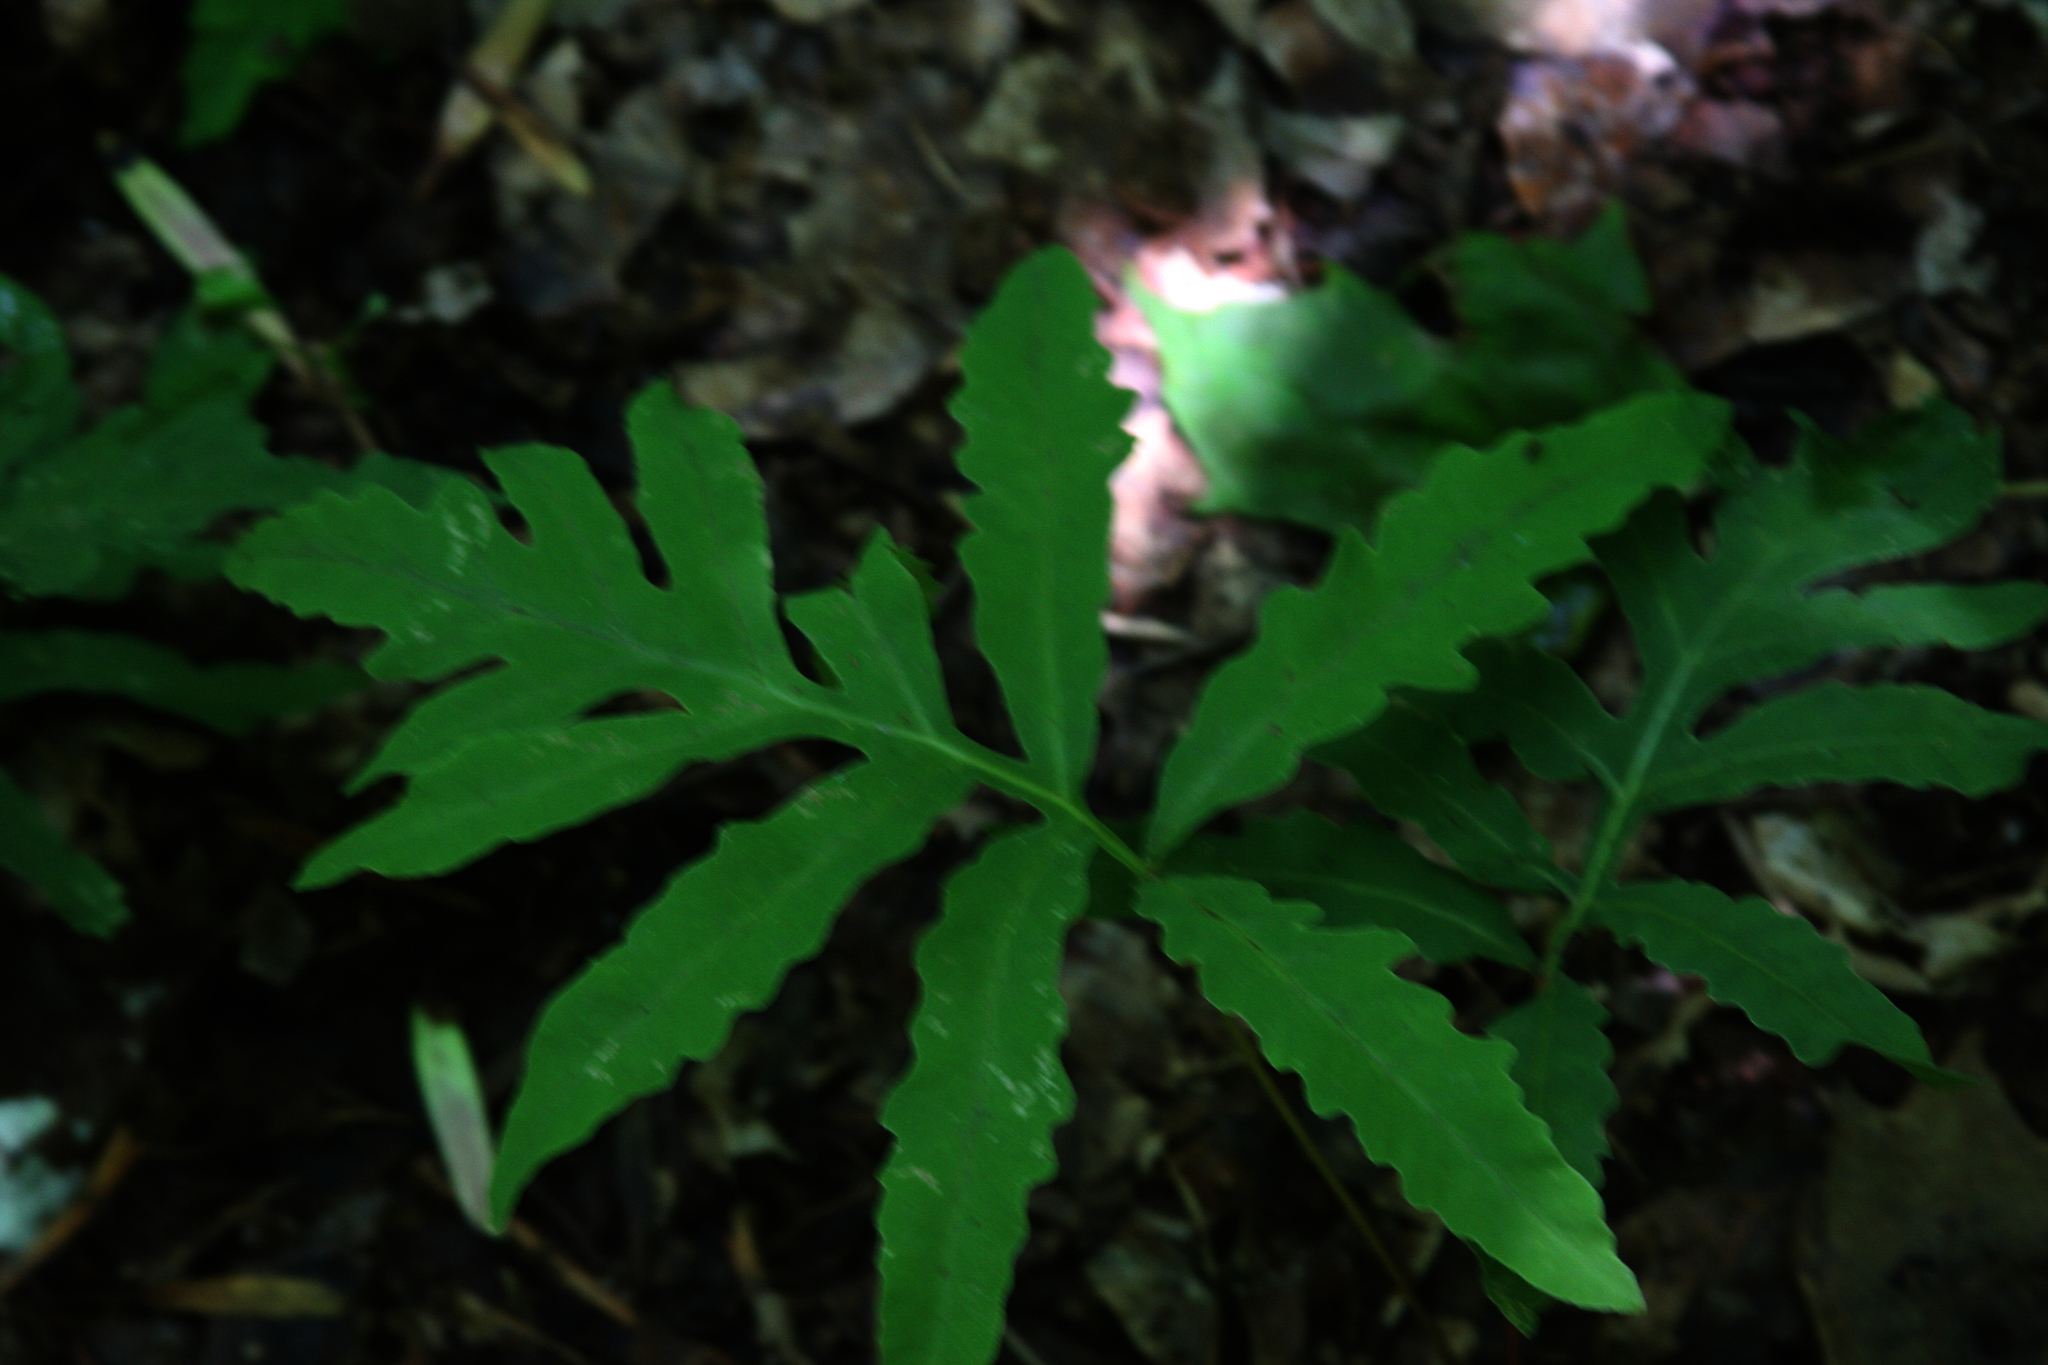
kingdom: Plantae
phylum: Tracheophyta
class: Polypodiopsida
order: Polypodiales
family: Onocleaceae
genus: Onoclea
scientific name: Onoclea sensibilis
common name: Sensitive fern
